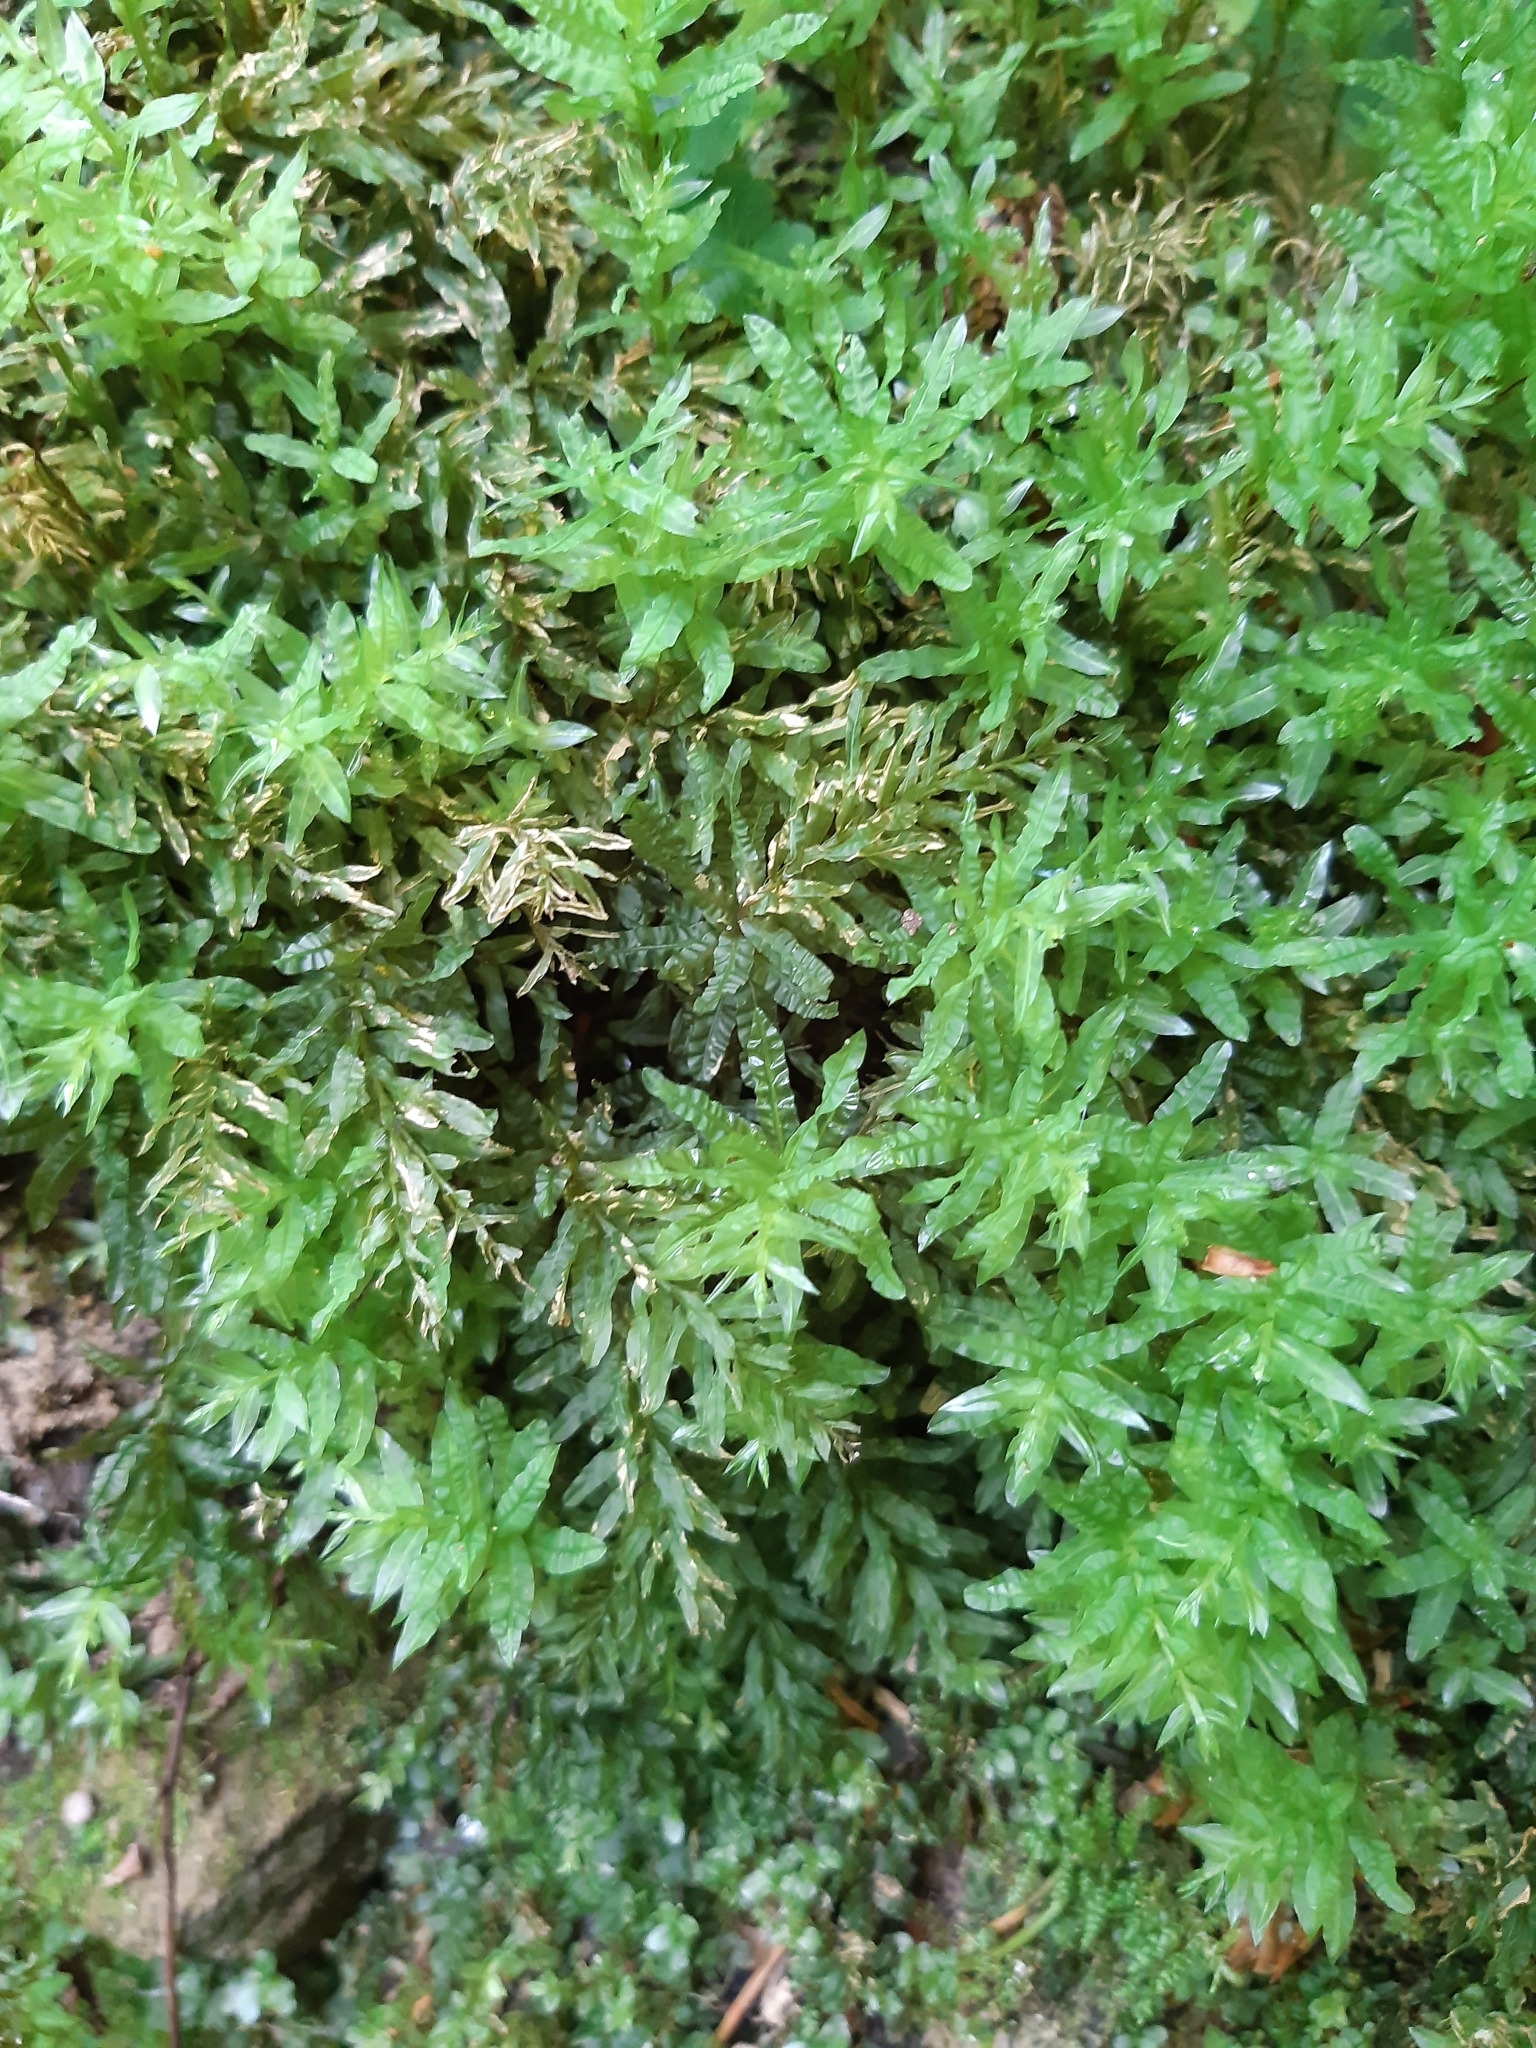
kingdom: Plantae
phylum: Bryophyta
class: Bryopsida
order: Bryales
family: Mniaceae
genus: Plagiomnium
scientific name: Plagiomnium undulatum
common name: Hart's-tongue thyme-moss
